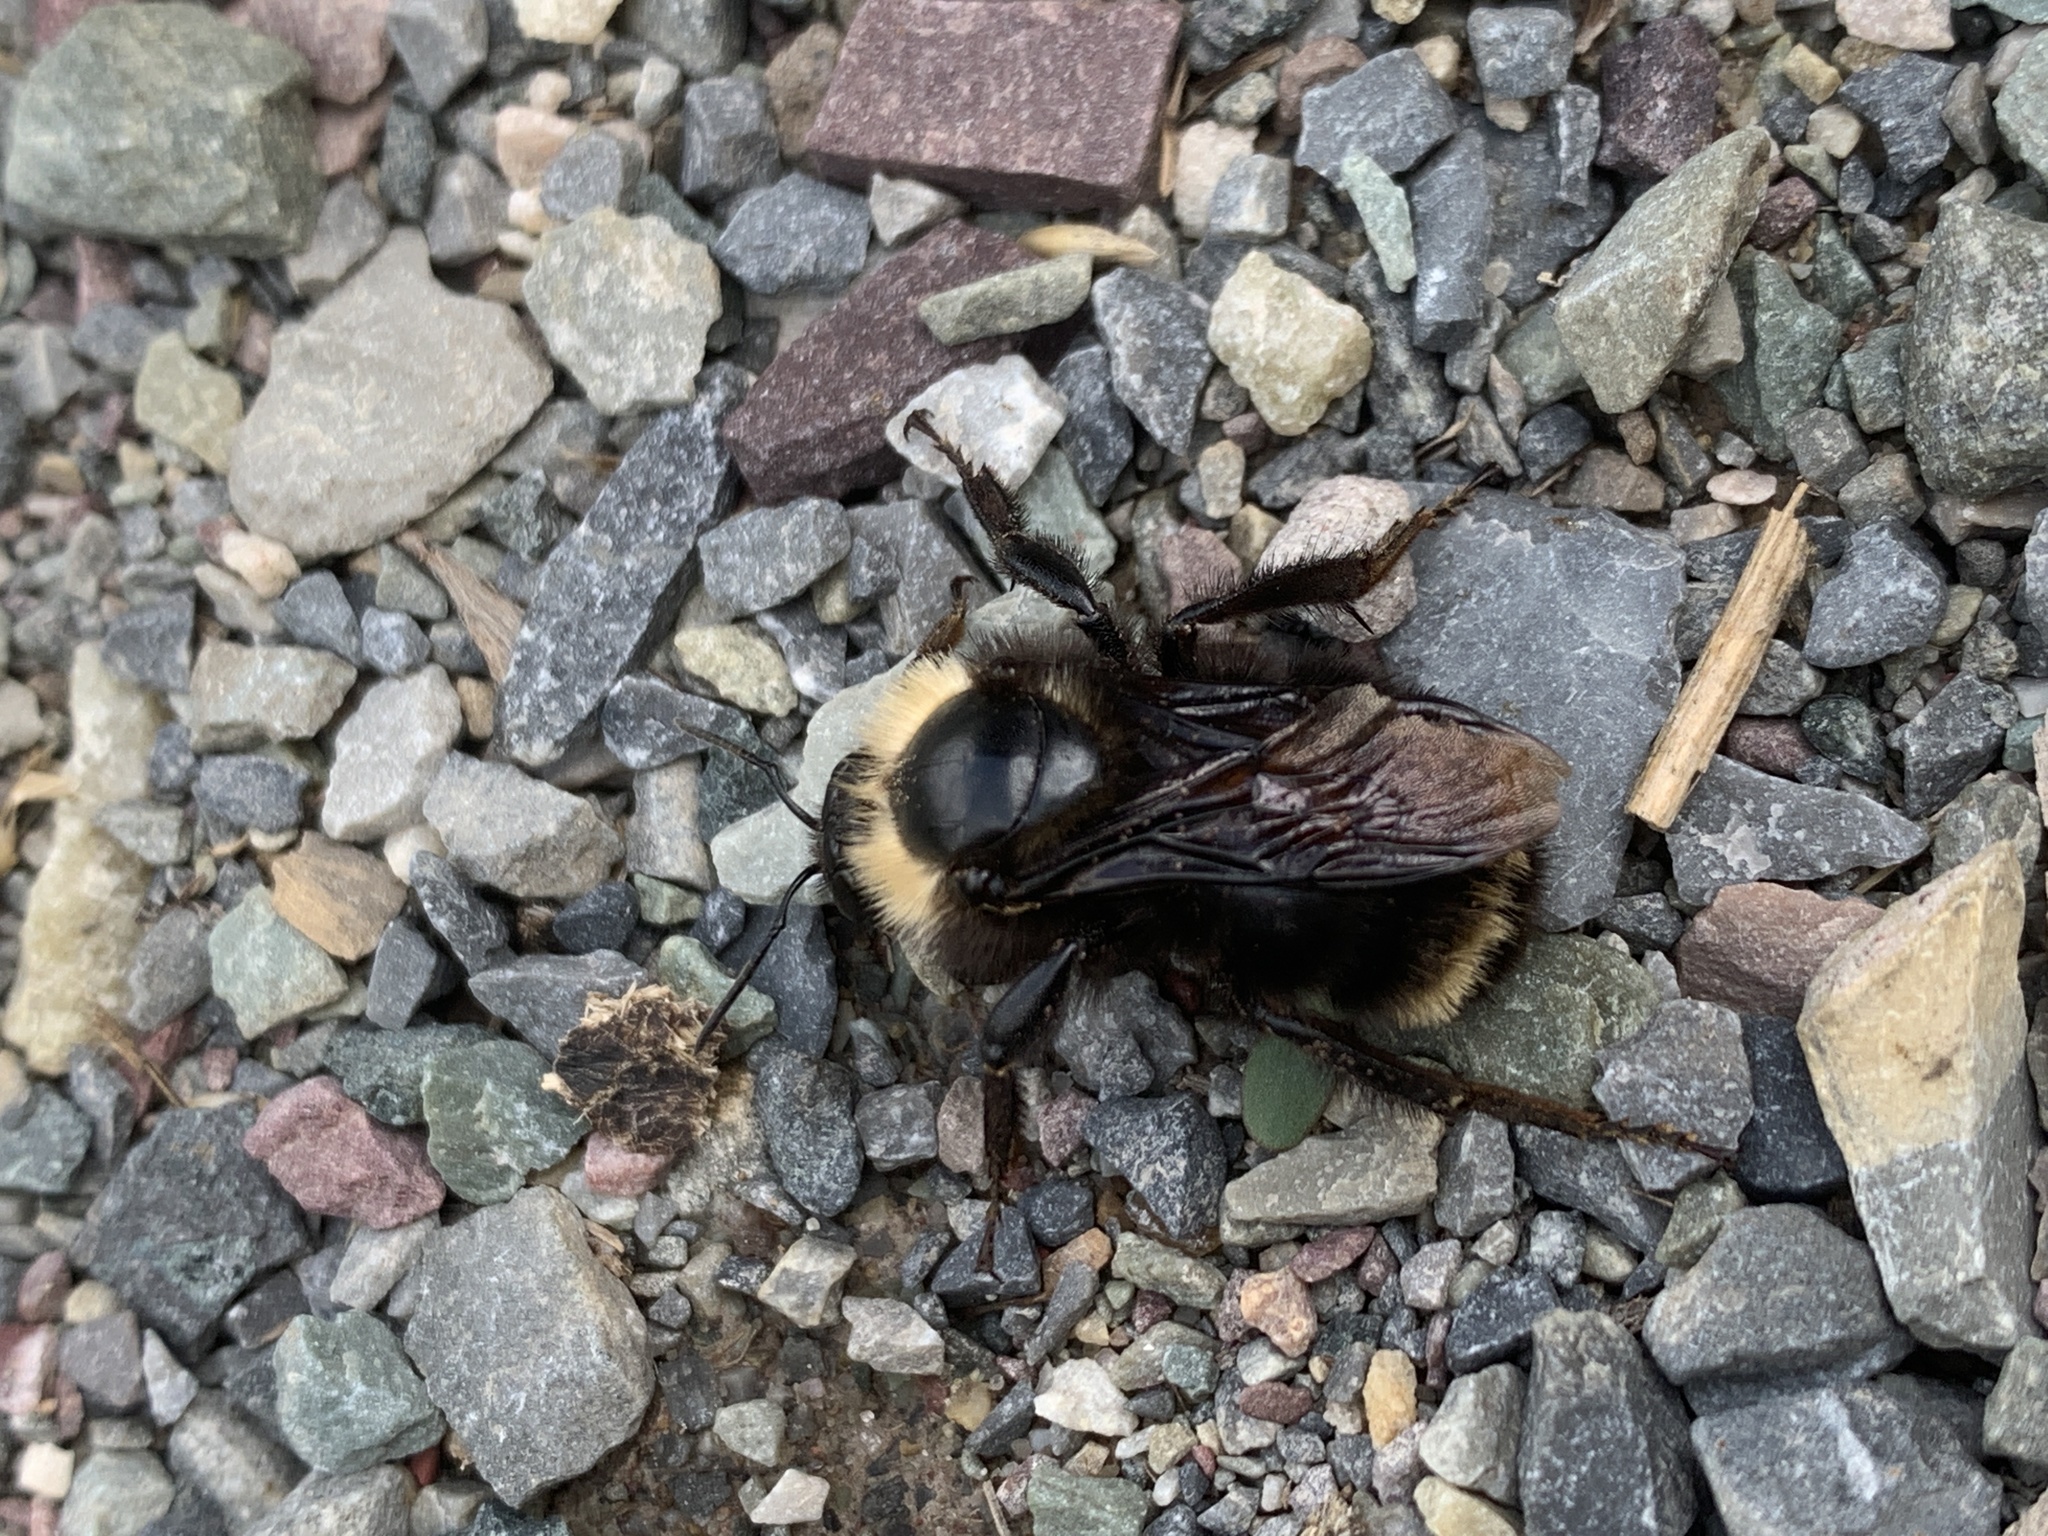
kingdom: Animalia
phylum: Arthropoda
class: Insecta
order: Hymenoptera
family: Apidae
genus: Bombus
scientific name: Bombus californicus
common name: California bumble bee
